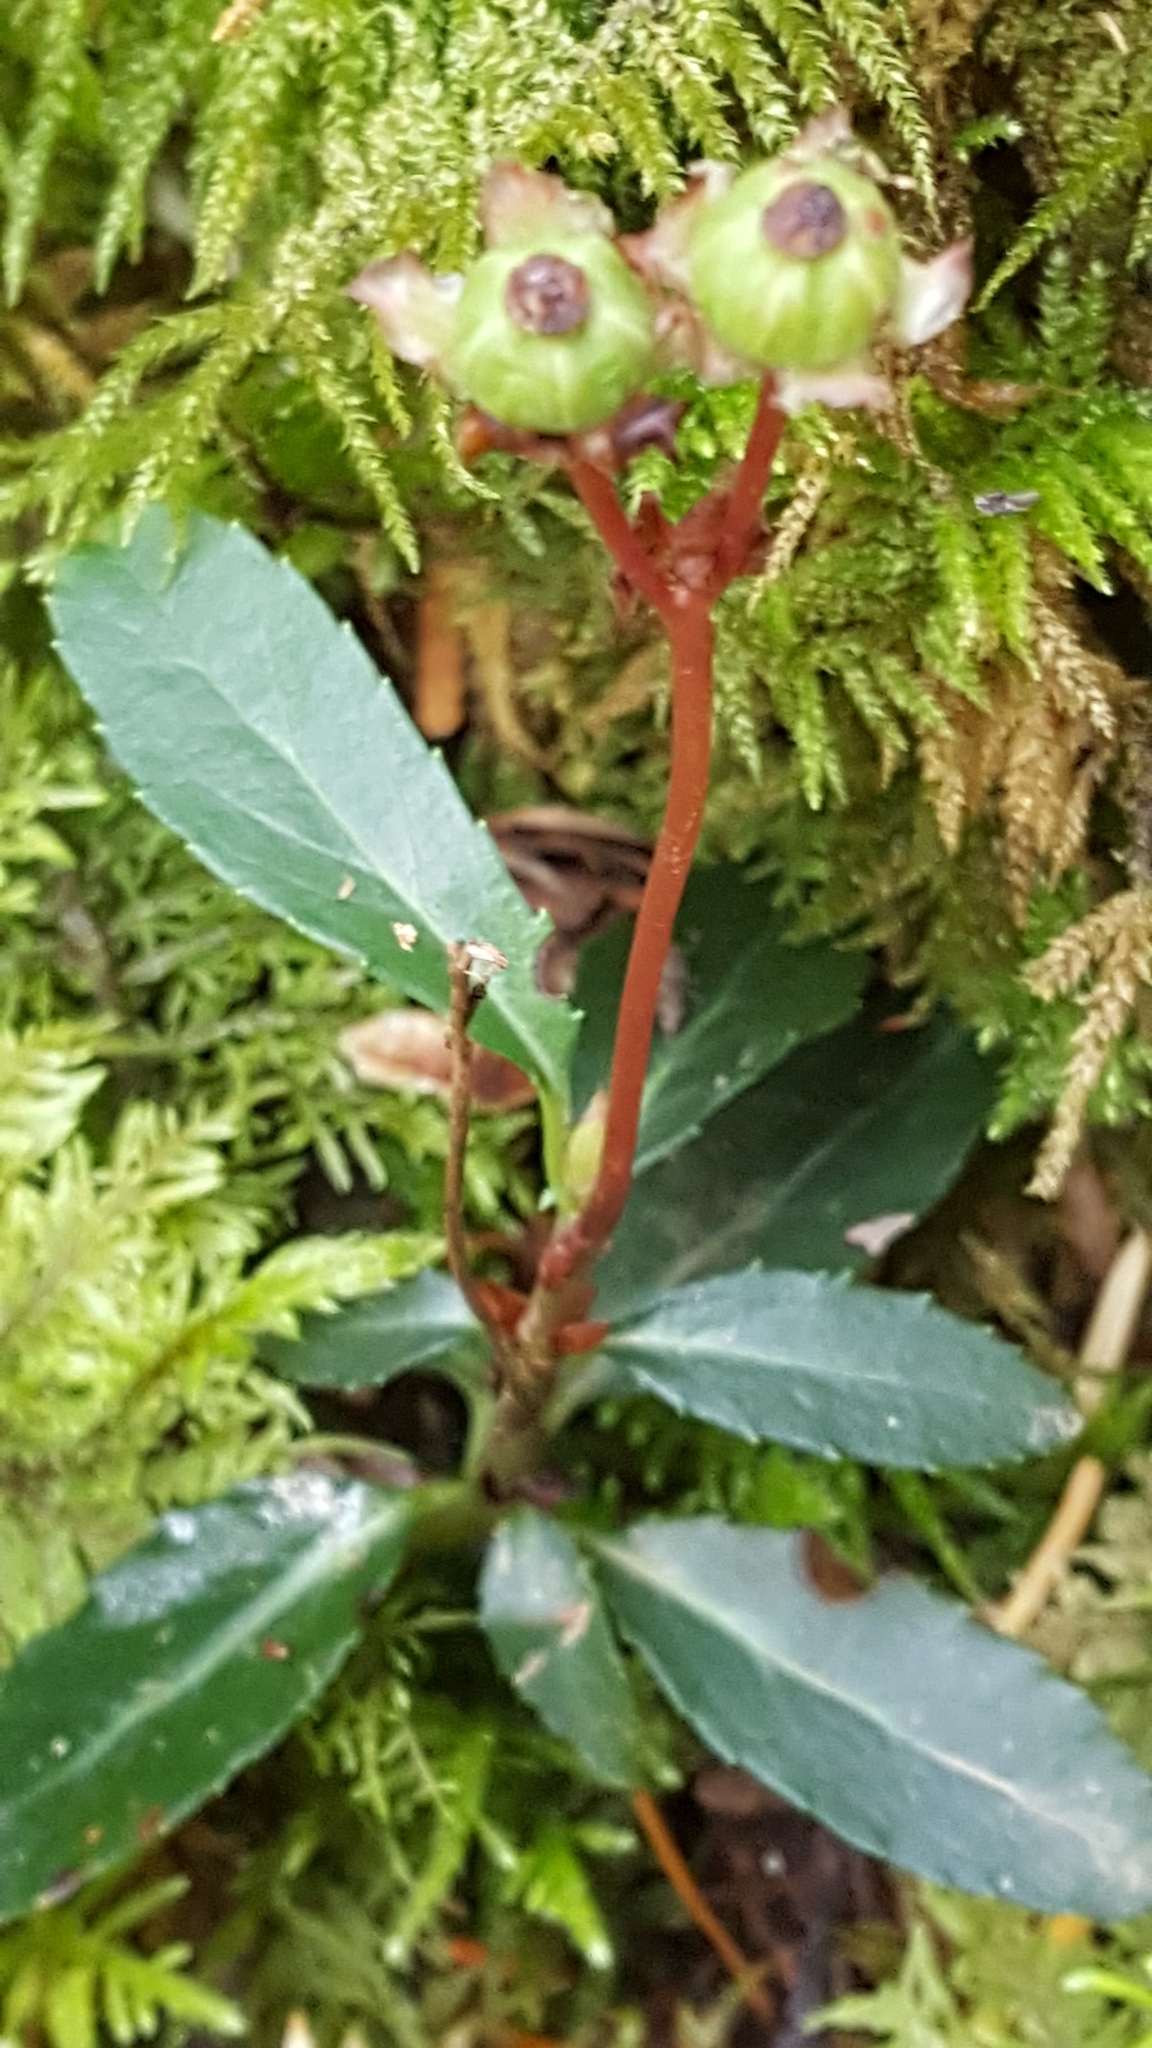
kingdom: Plantae
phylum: Tracheophyta
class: Magnoliopsida
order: Ericales
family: Ericaceae
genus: Chimaphila
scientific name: Chimaphila umbellata
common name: Pipsissewa
